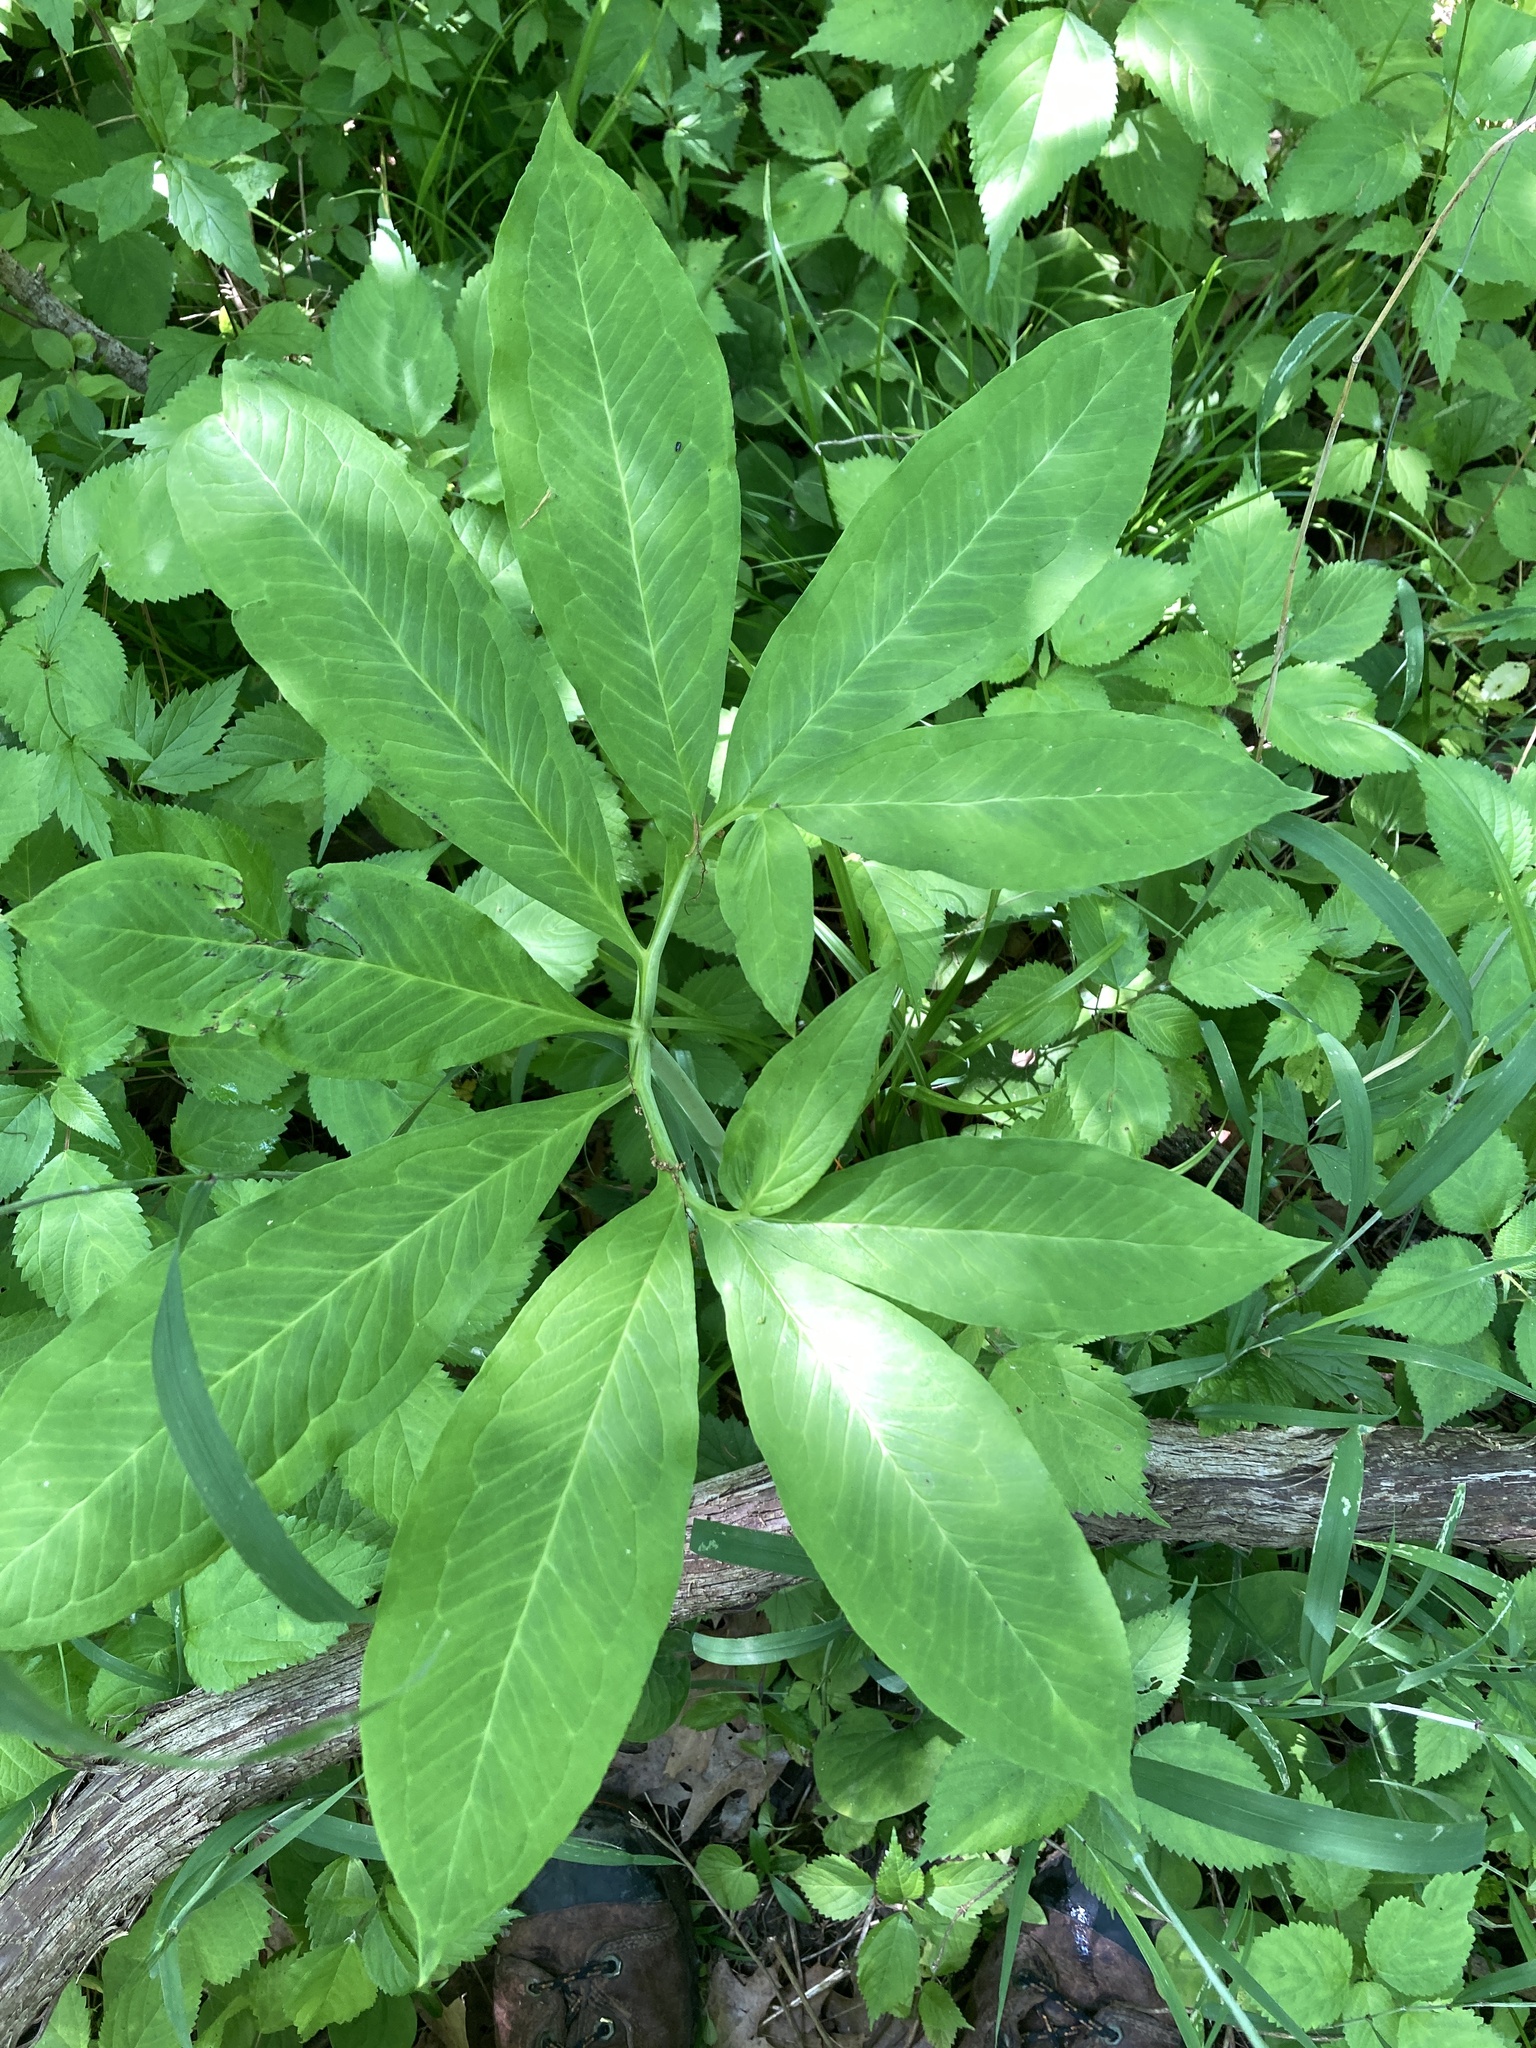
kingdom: Plantae
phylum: Tracheophyta
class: Liliopsida
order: Alismatales
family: Araceae
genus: Arisaema
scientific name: Arisaema dracontium
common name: Dragon-arum
